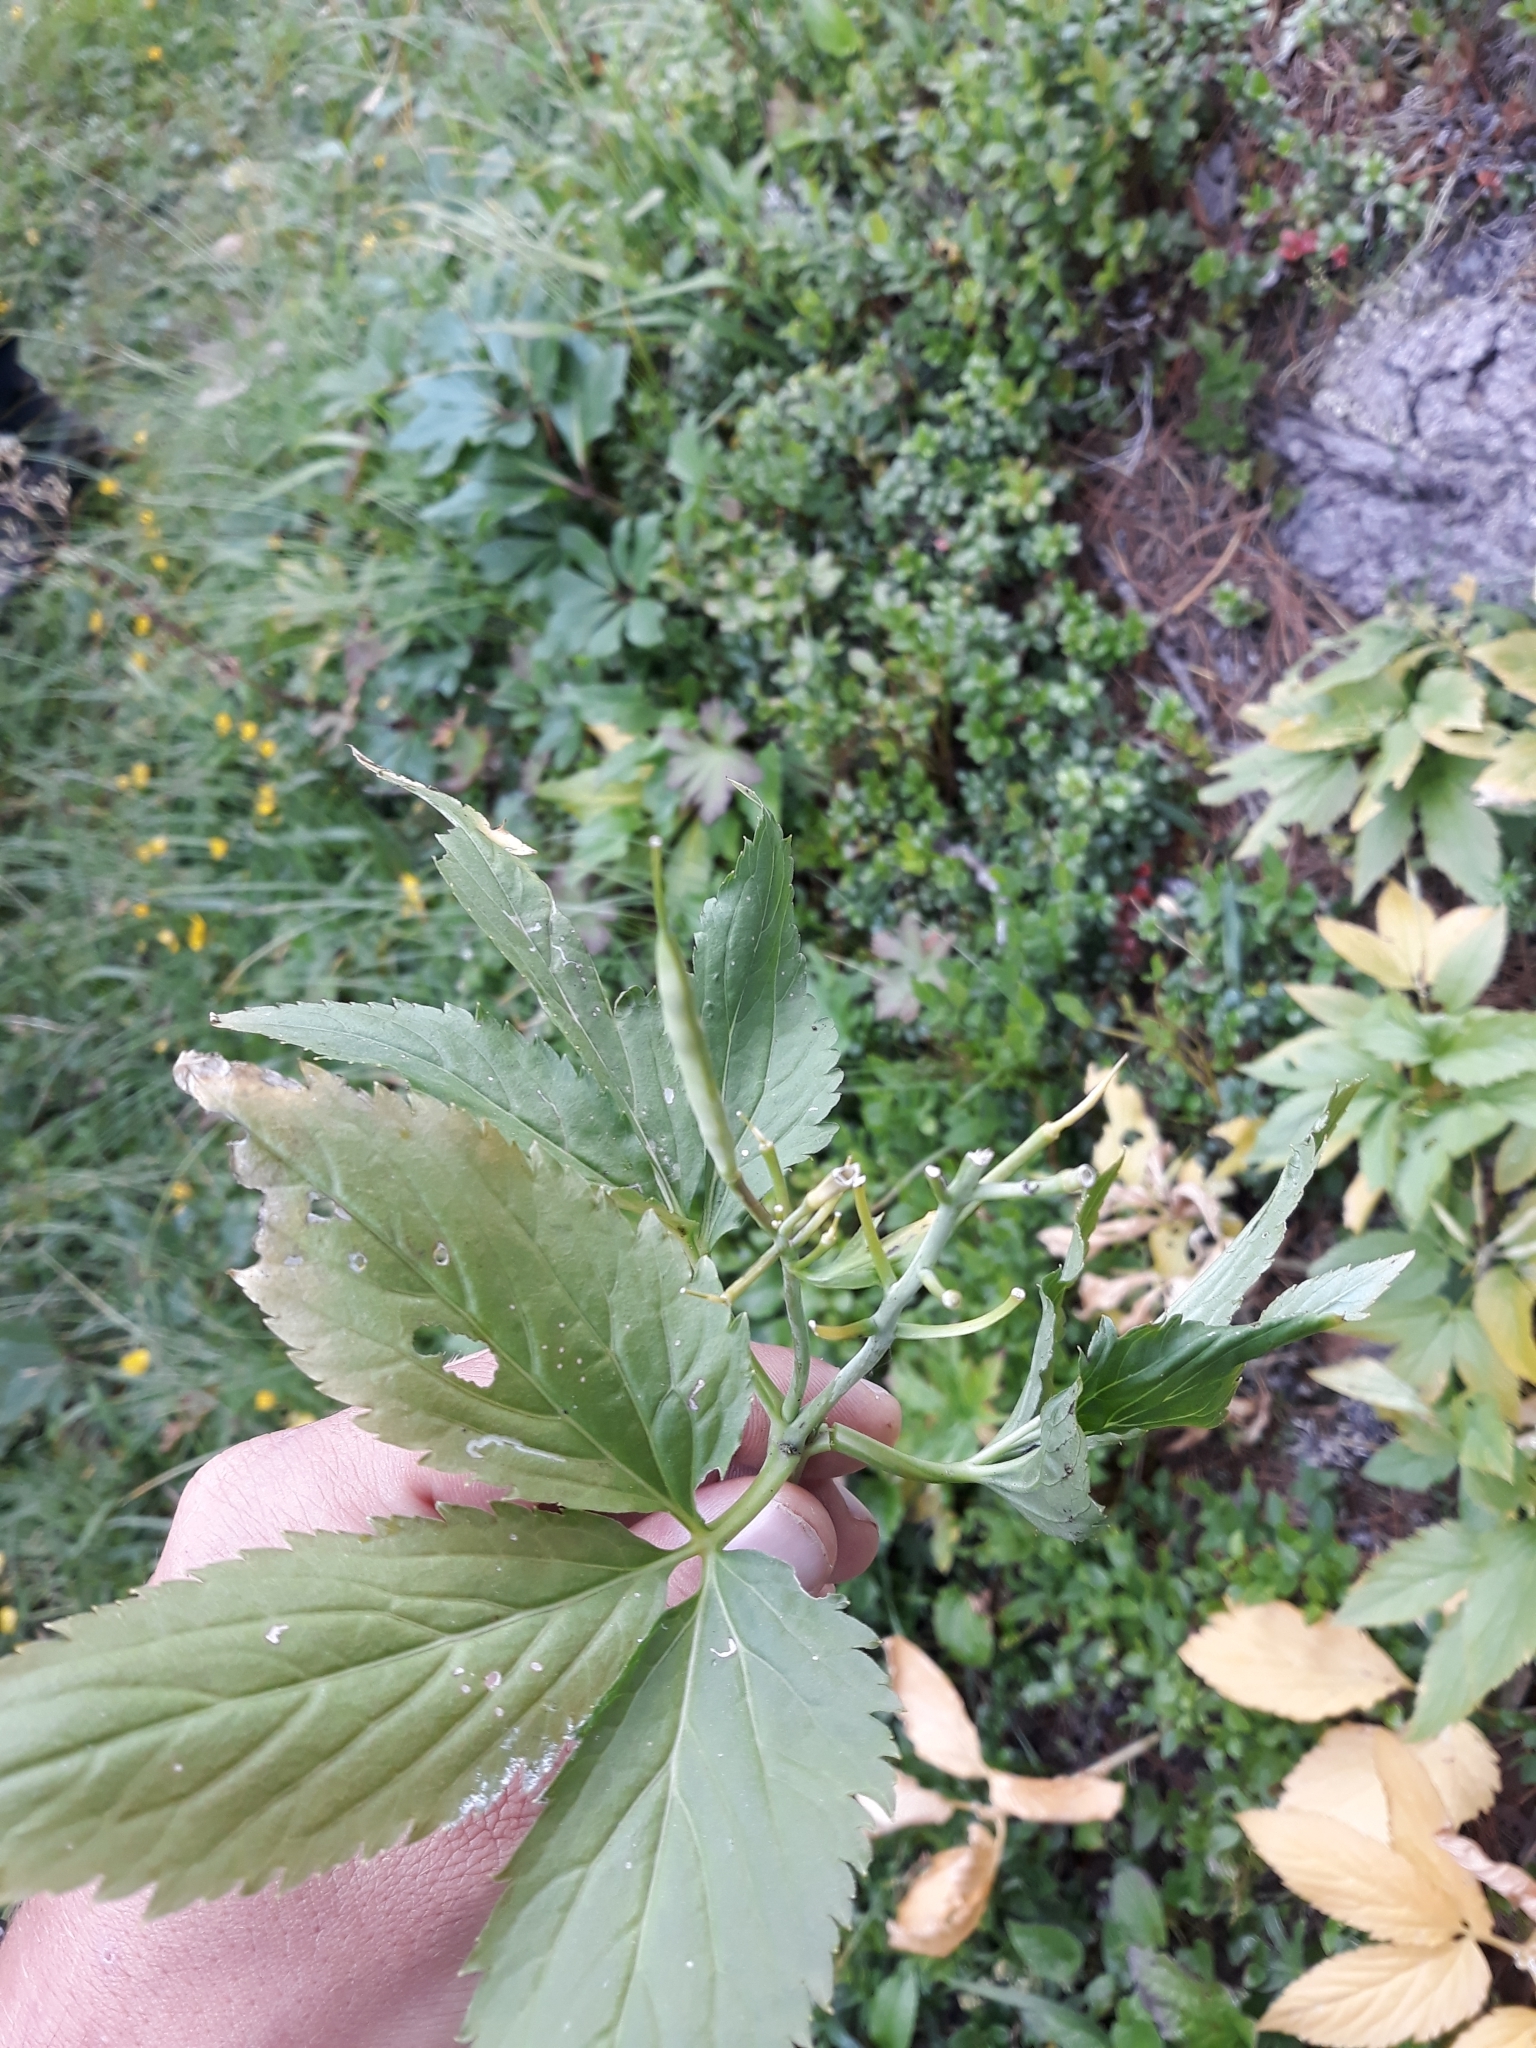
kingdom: Plantae
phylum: Tracheophyta
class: Magnoliopsida
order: Brassicales
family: Brassicaceae
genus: Cardamine
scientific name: Cardamine enneaphyllos
